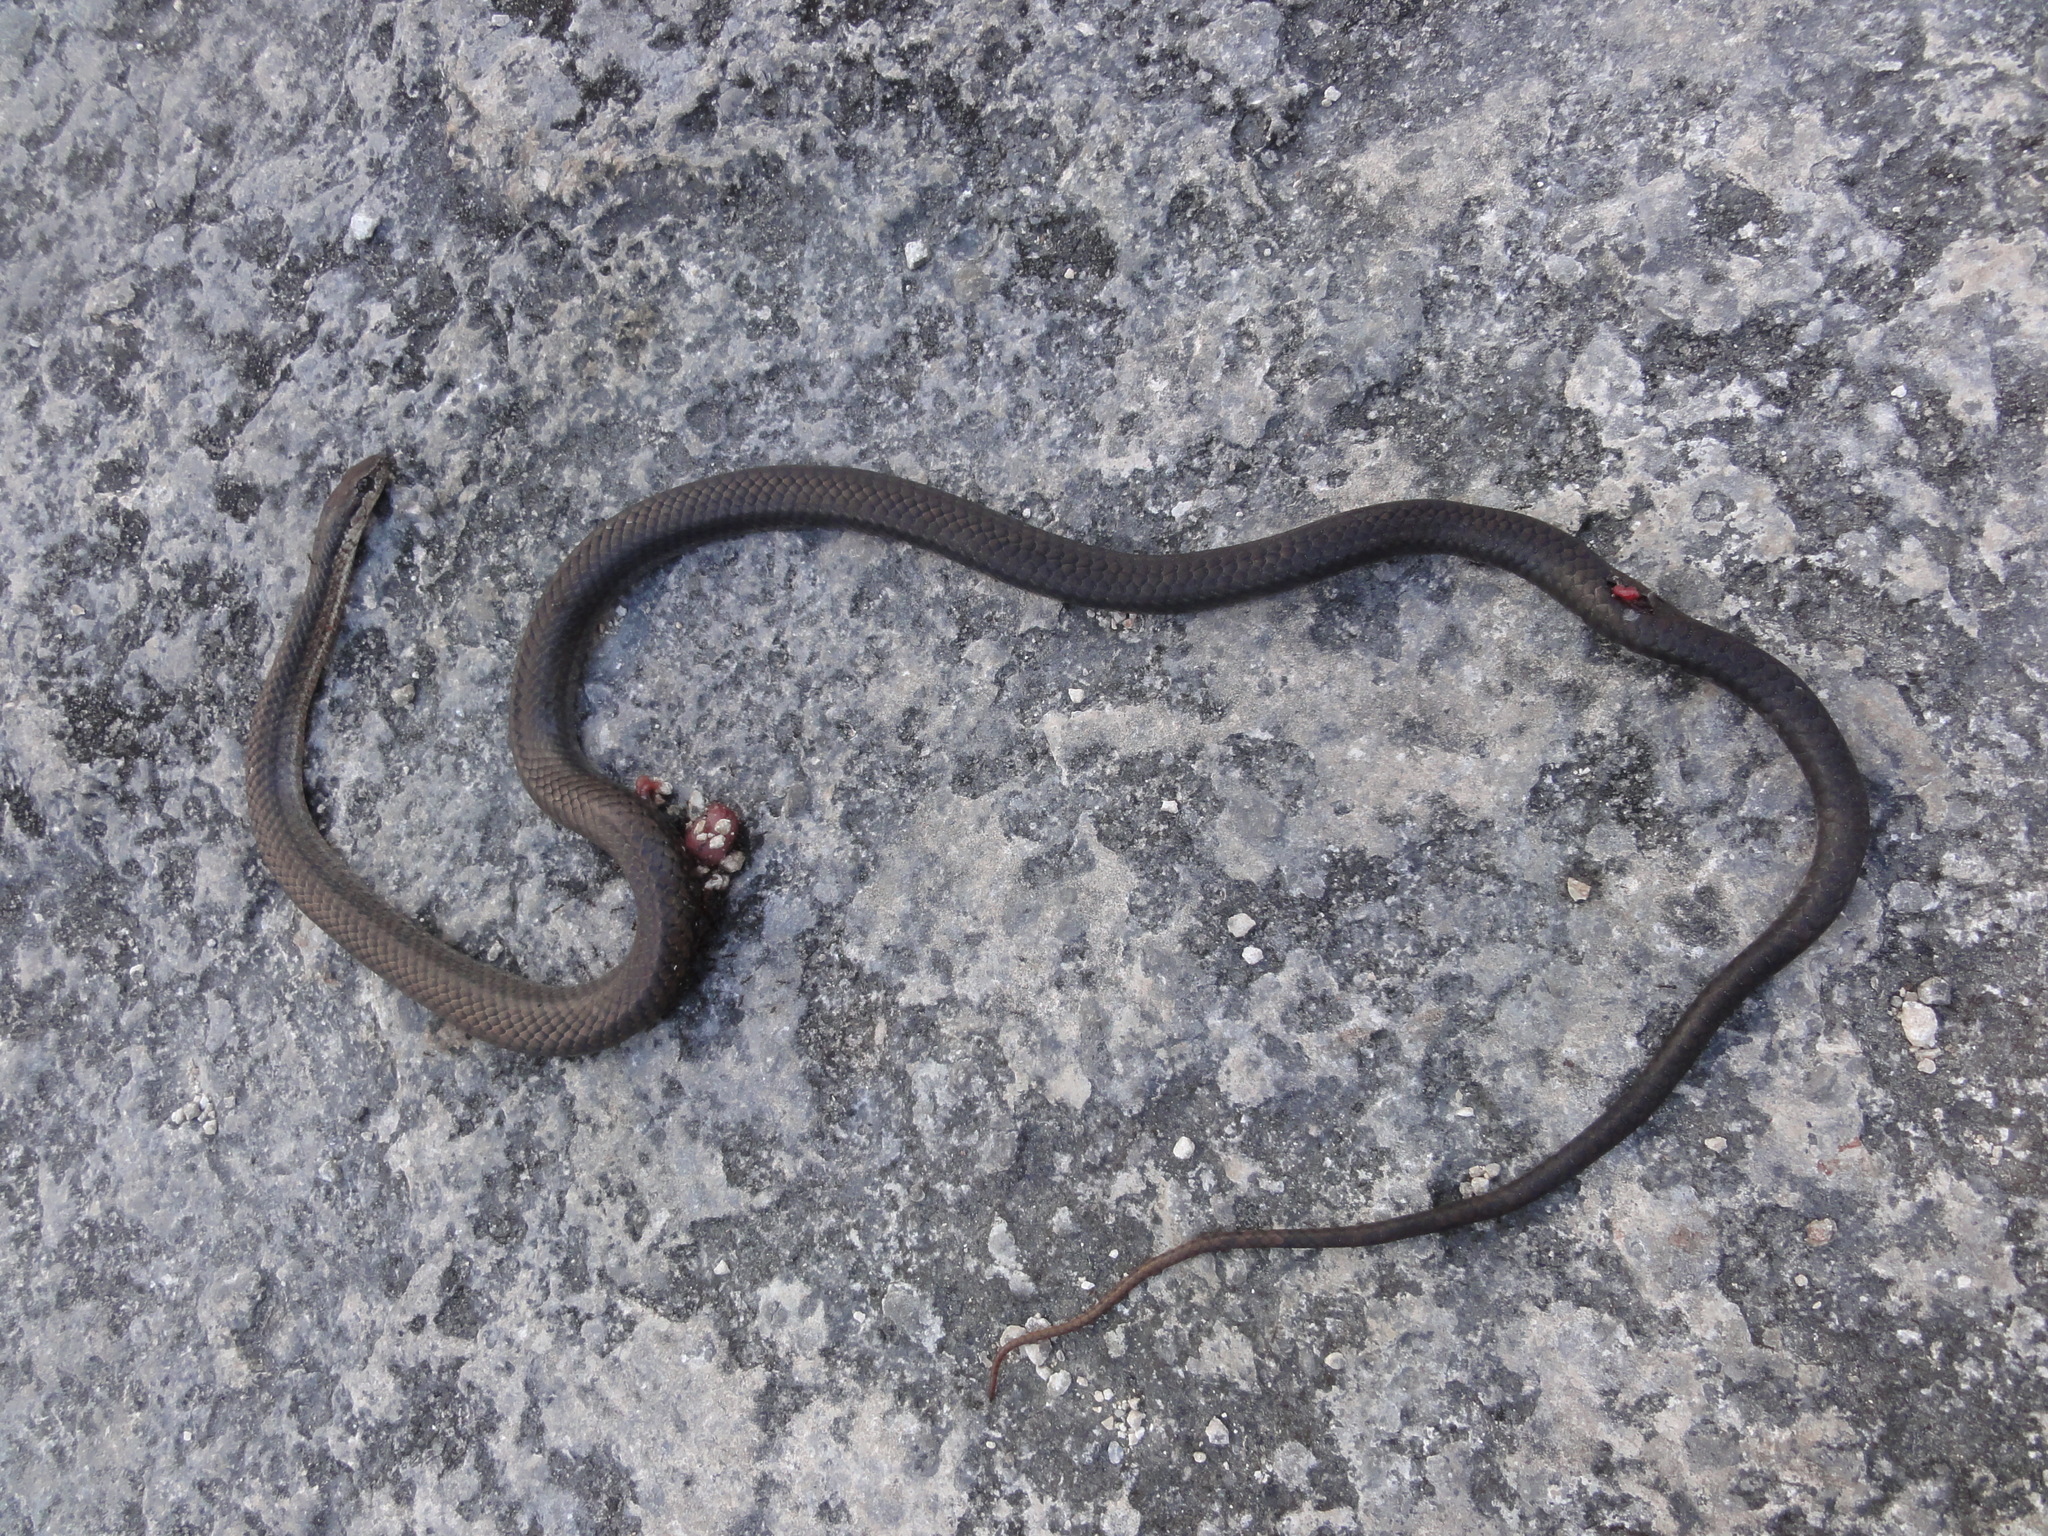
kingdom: Animalia
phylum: Chordata
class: Squamata
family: Colubridae
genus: Cubophis
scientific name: Cubophis vudii
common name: Bahamian racer
